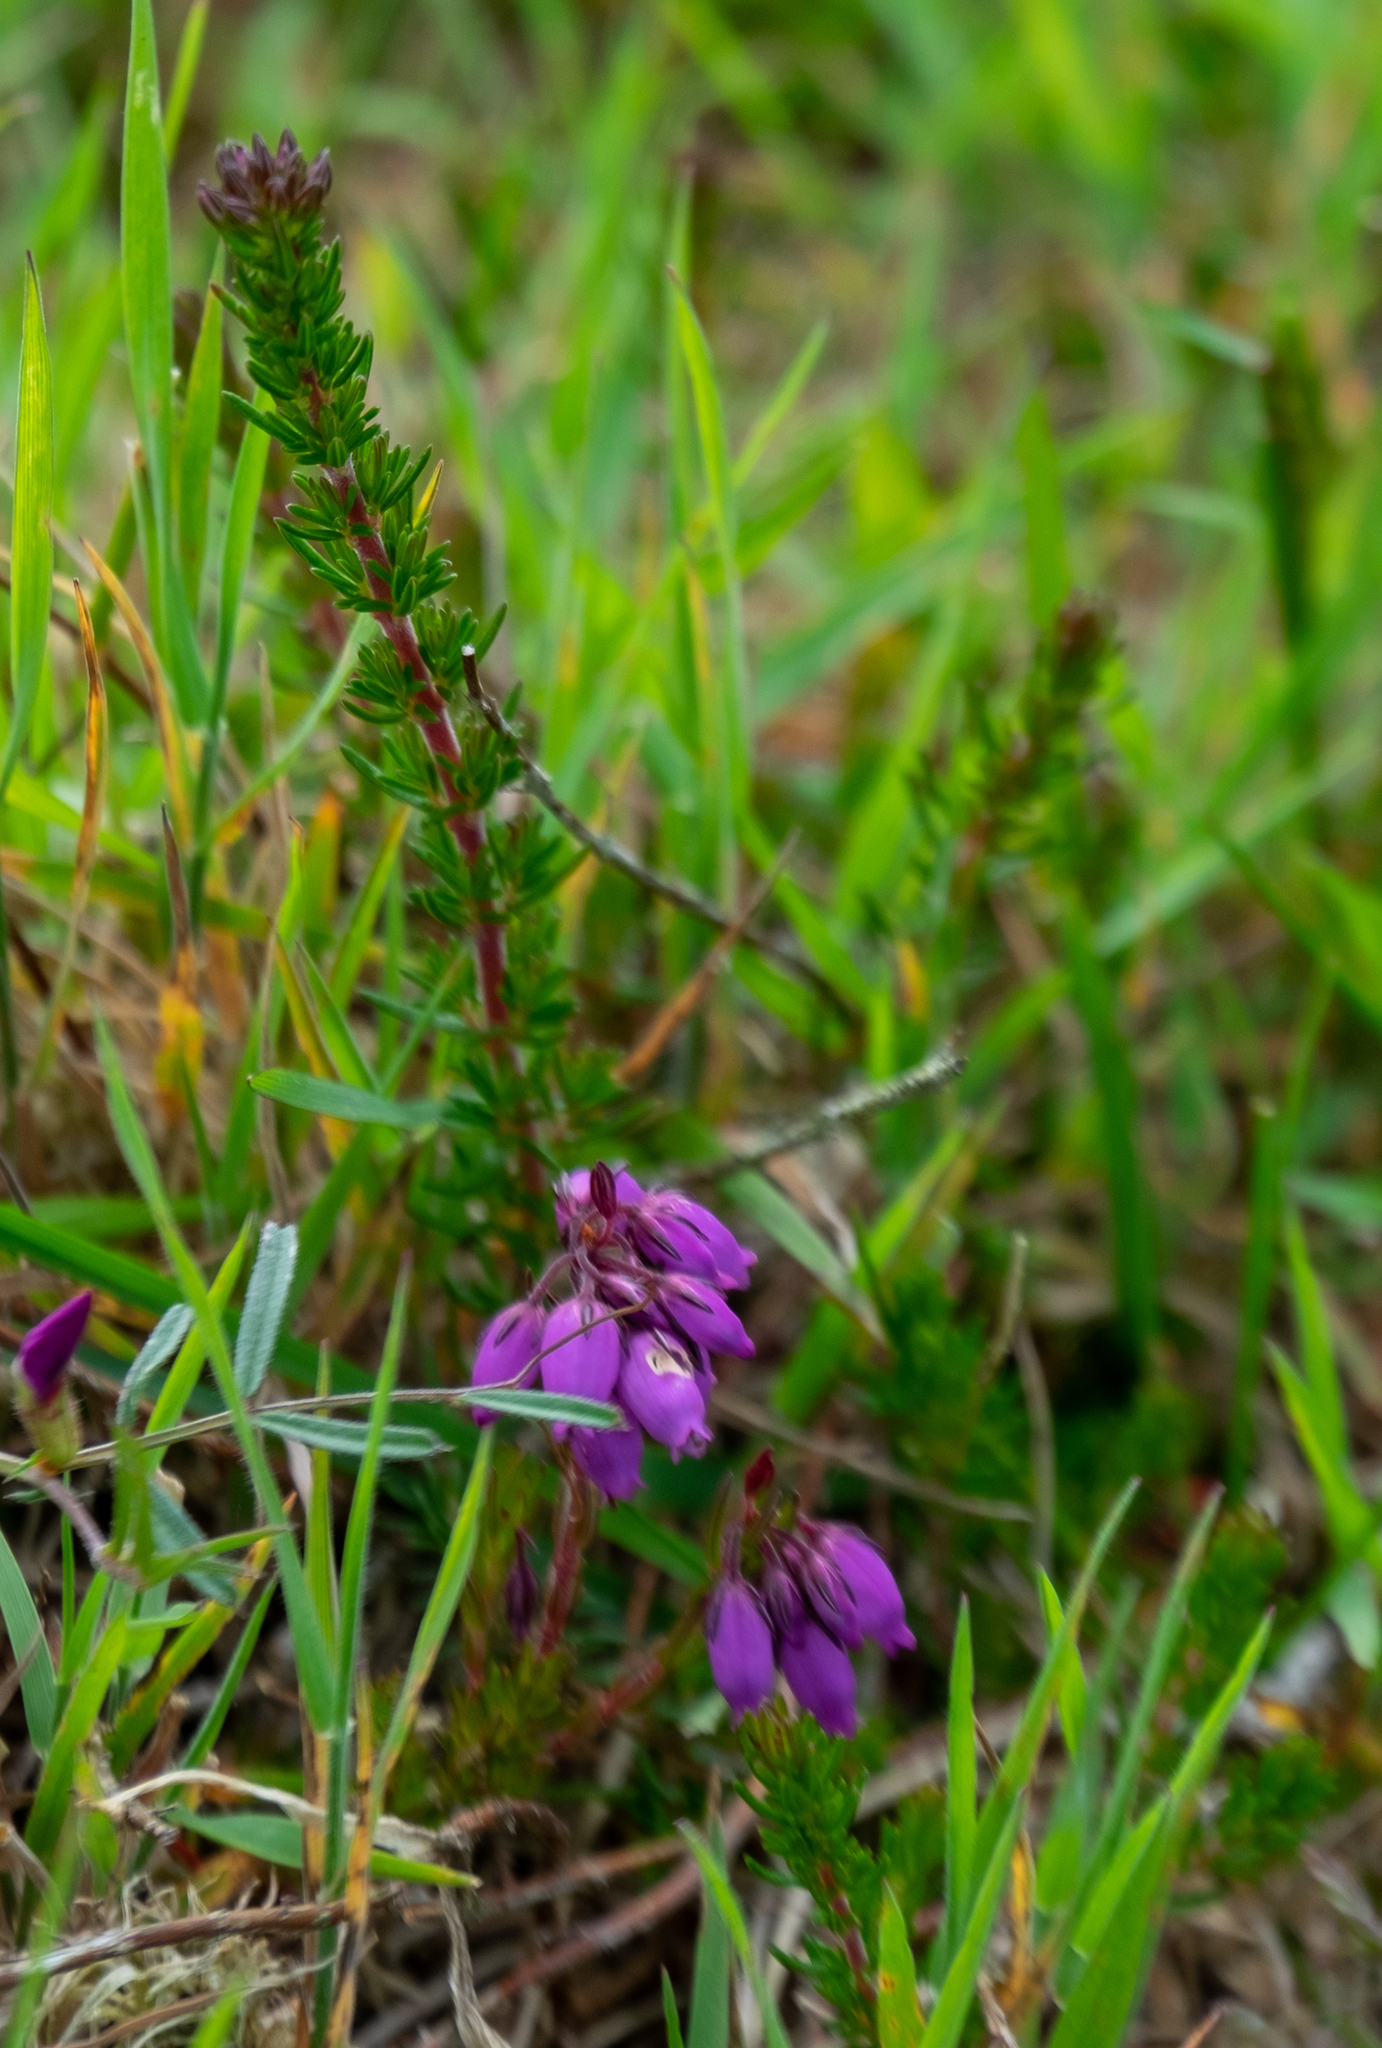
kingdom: Plantae
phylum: Tracheophyta
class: Magnoliopsida
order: Ericales
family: Ericaceae
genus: Erica
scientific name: Erica cinerea
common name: Bell heather
